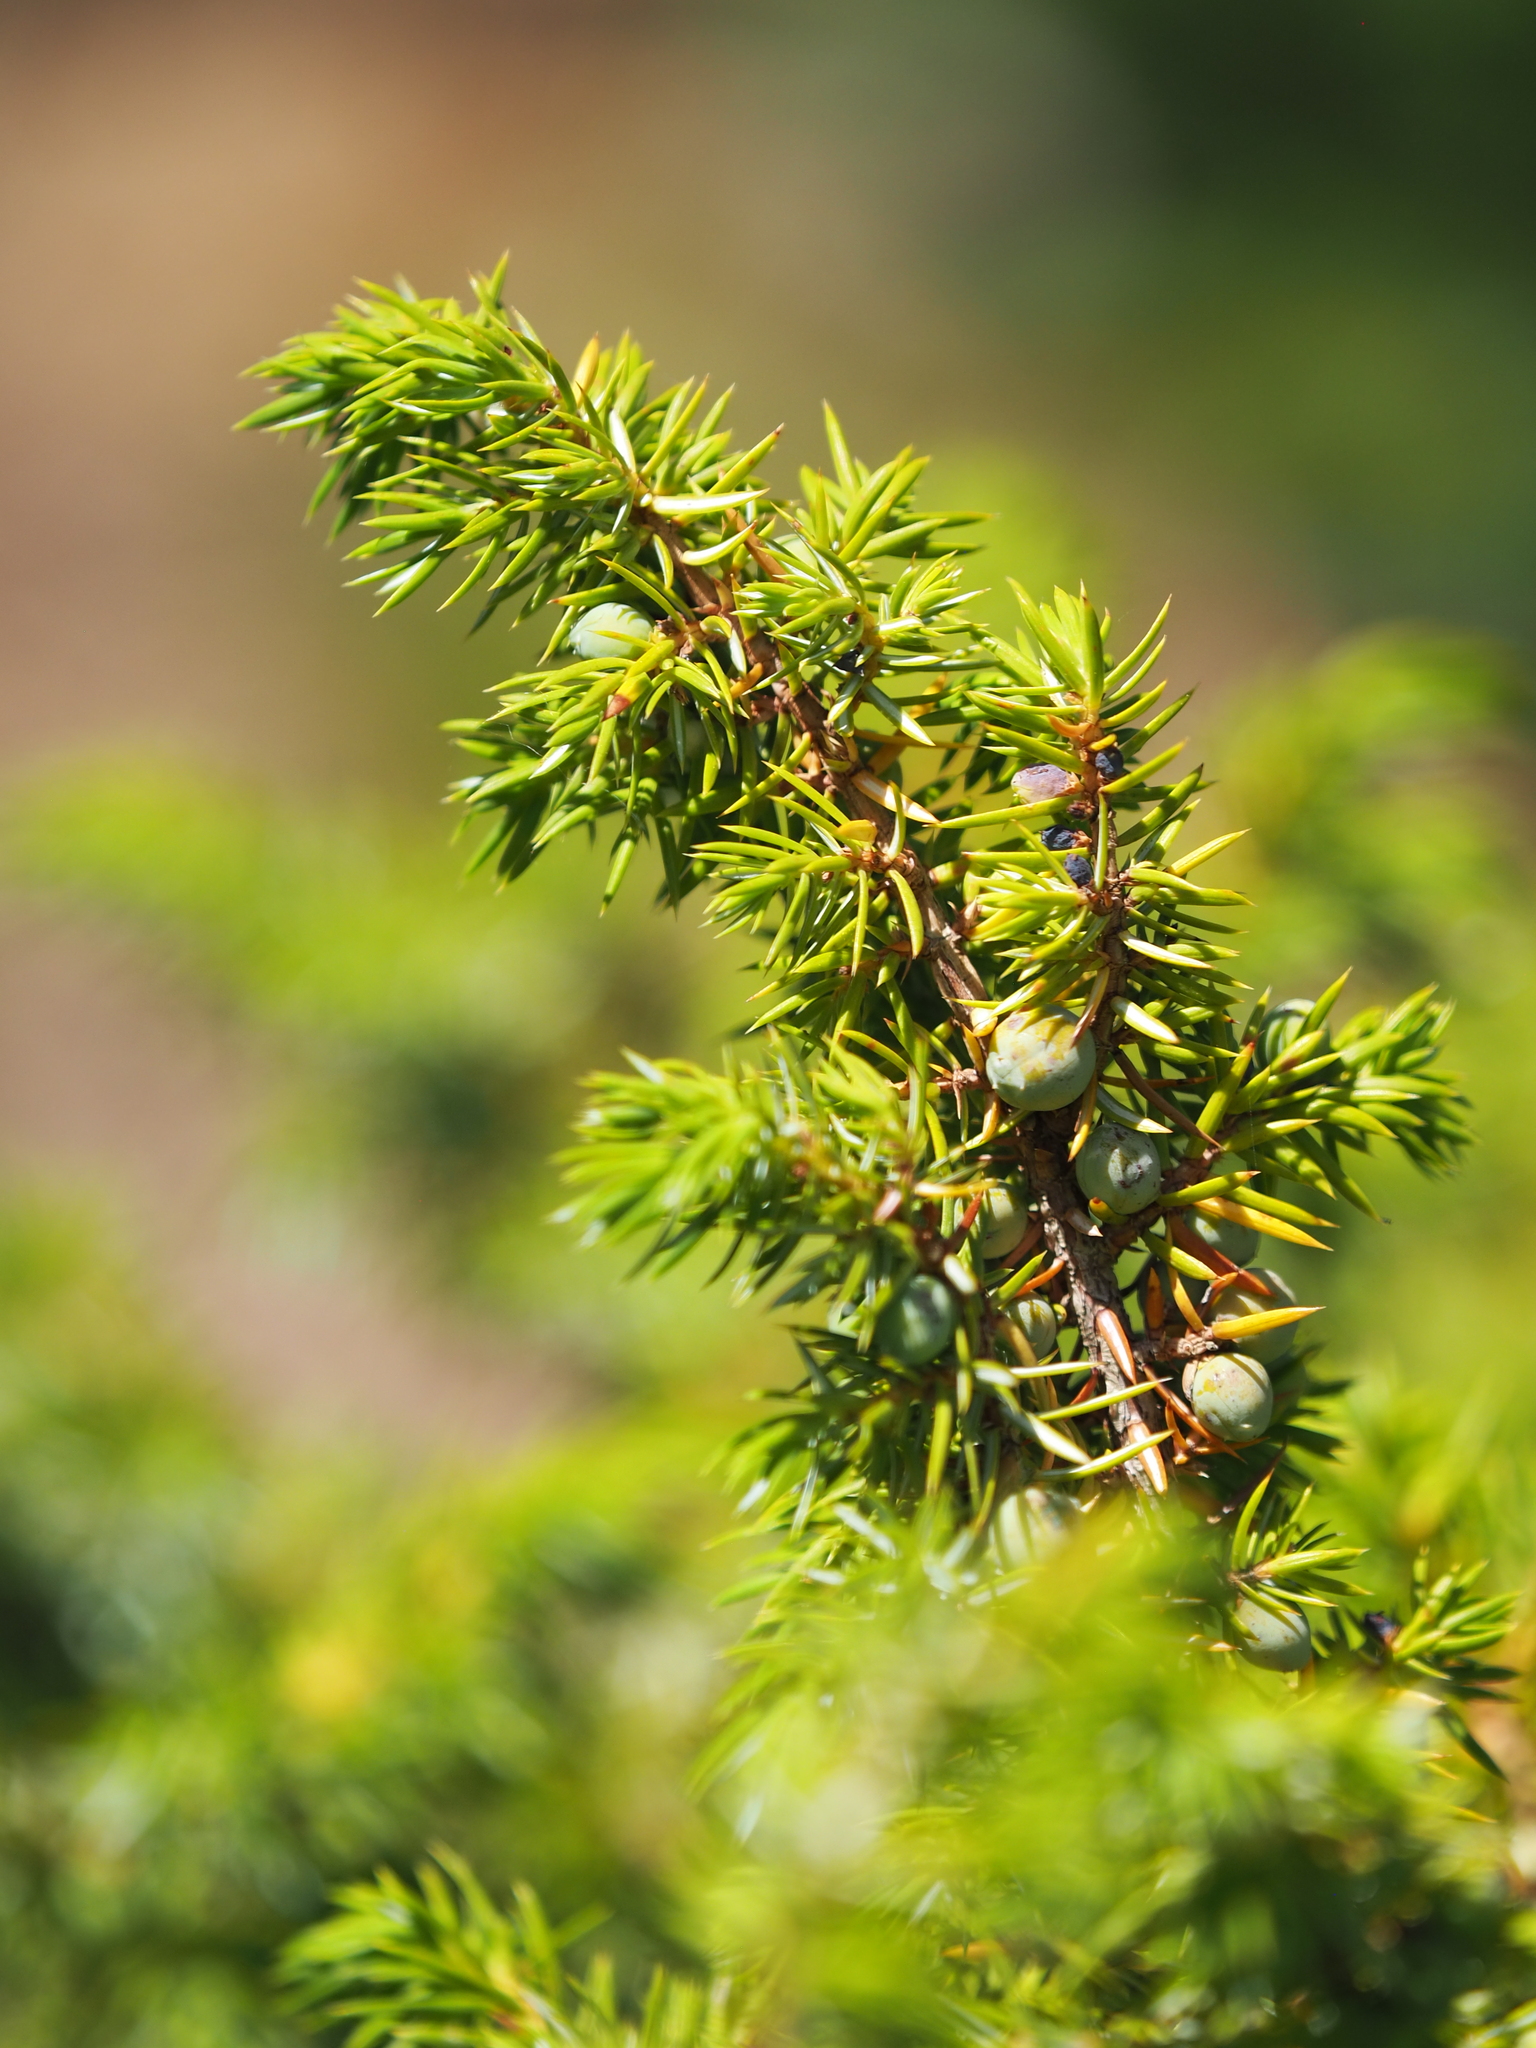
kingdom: Plantae
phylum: Tracheophyta
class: Pinopsida
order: Pinales
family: Cupressaceae
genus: Juniperus
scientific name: Juniperus communis
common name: Common juniper
